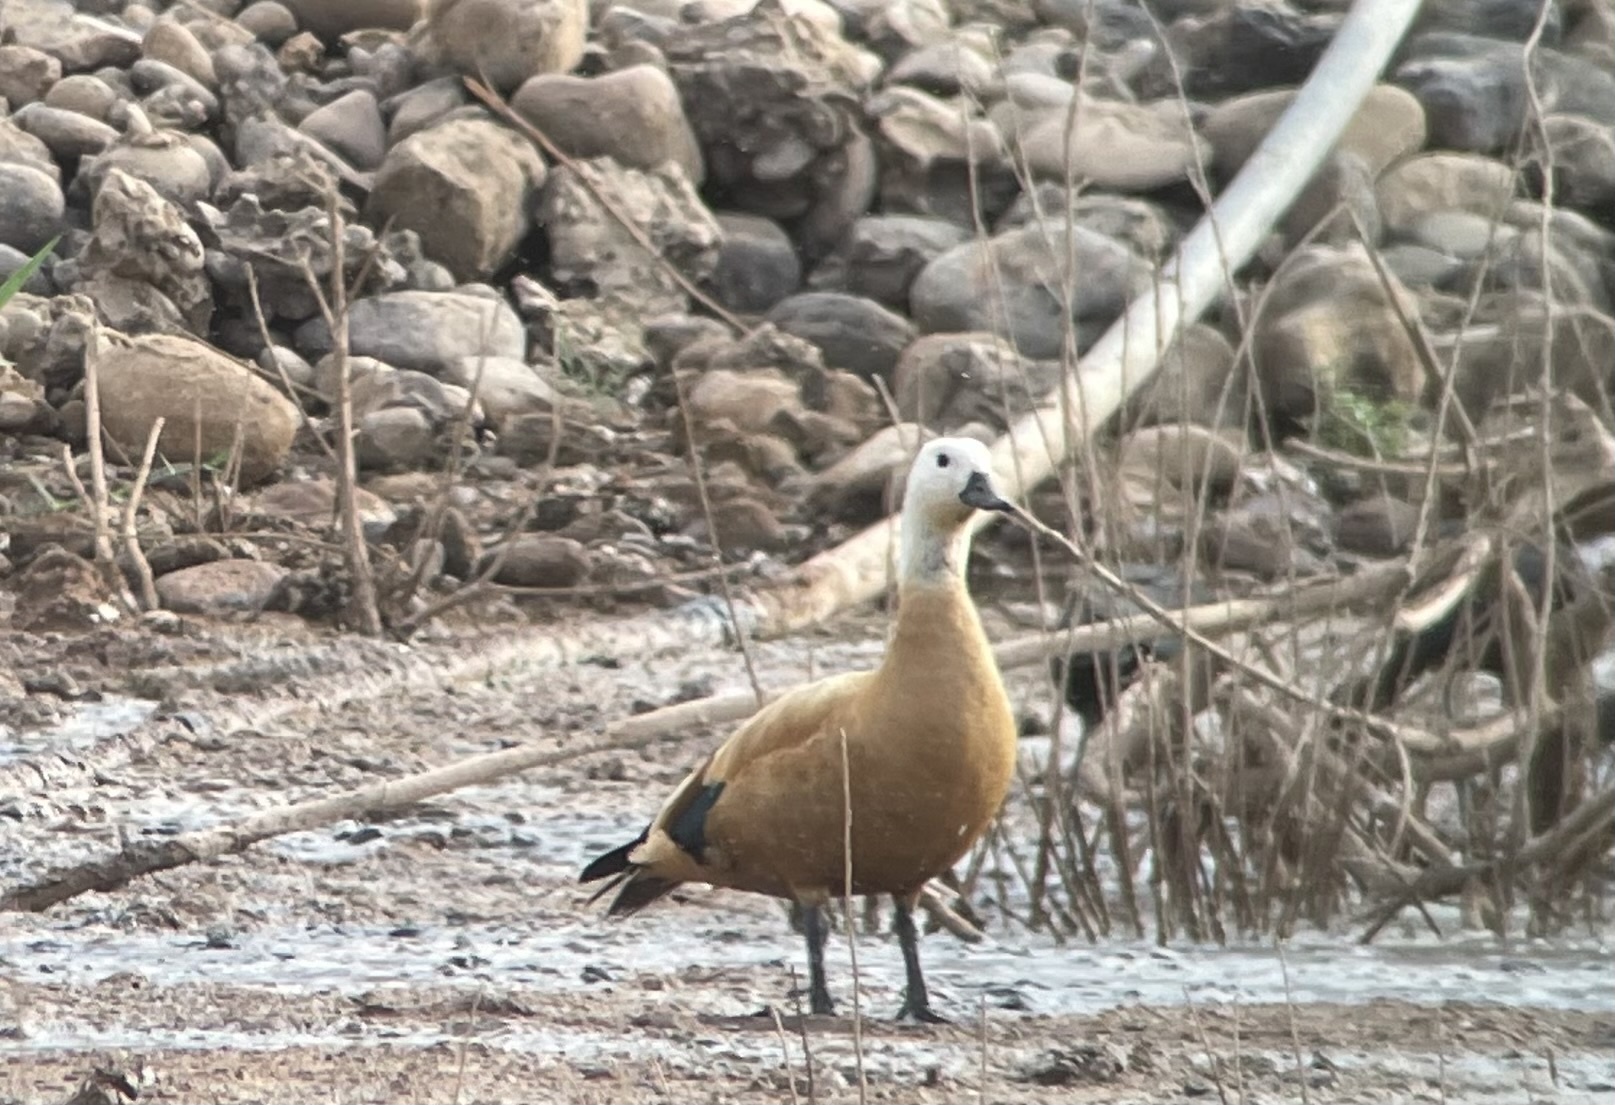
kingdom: Animalia
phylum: Chordata
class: Aves
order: Anseriformes
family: Anatidae
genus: Tadorna
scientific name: Tadorna ferruginea
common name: Ruddy shelduck
